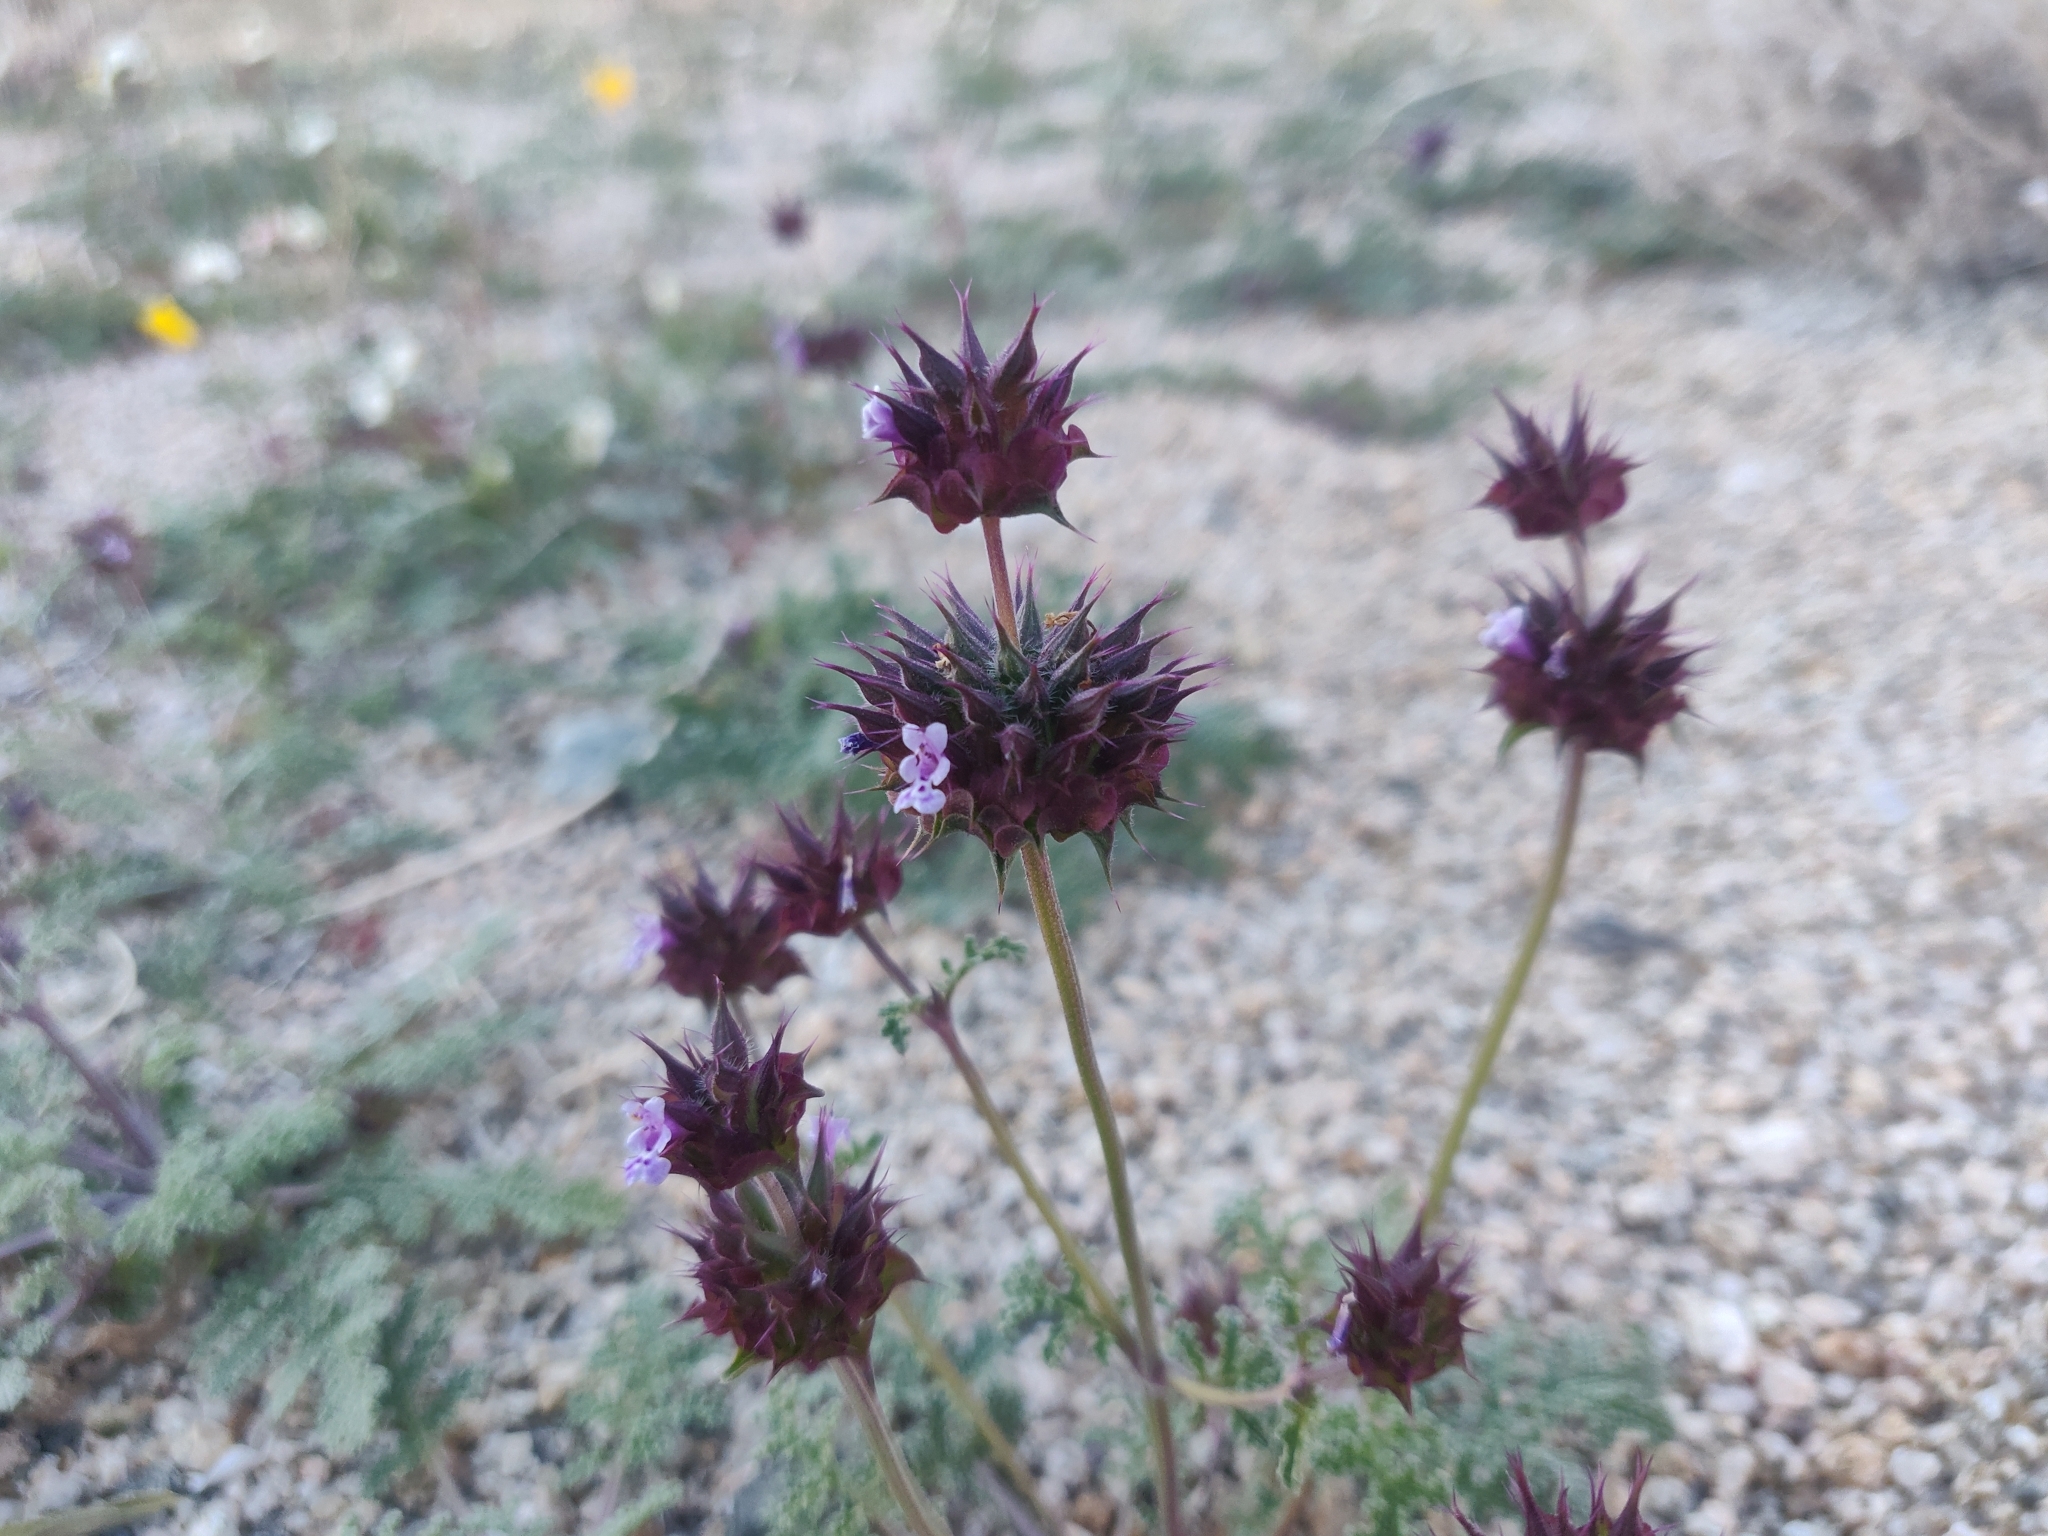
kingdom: Plantae
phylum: Tracheophyta
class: Magnoliopsida
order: Lamiales
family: Lamiaceae
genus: Salvia
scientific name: Salvia columbariae
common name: Chia
